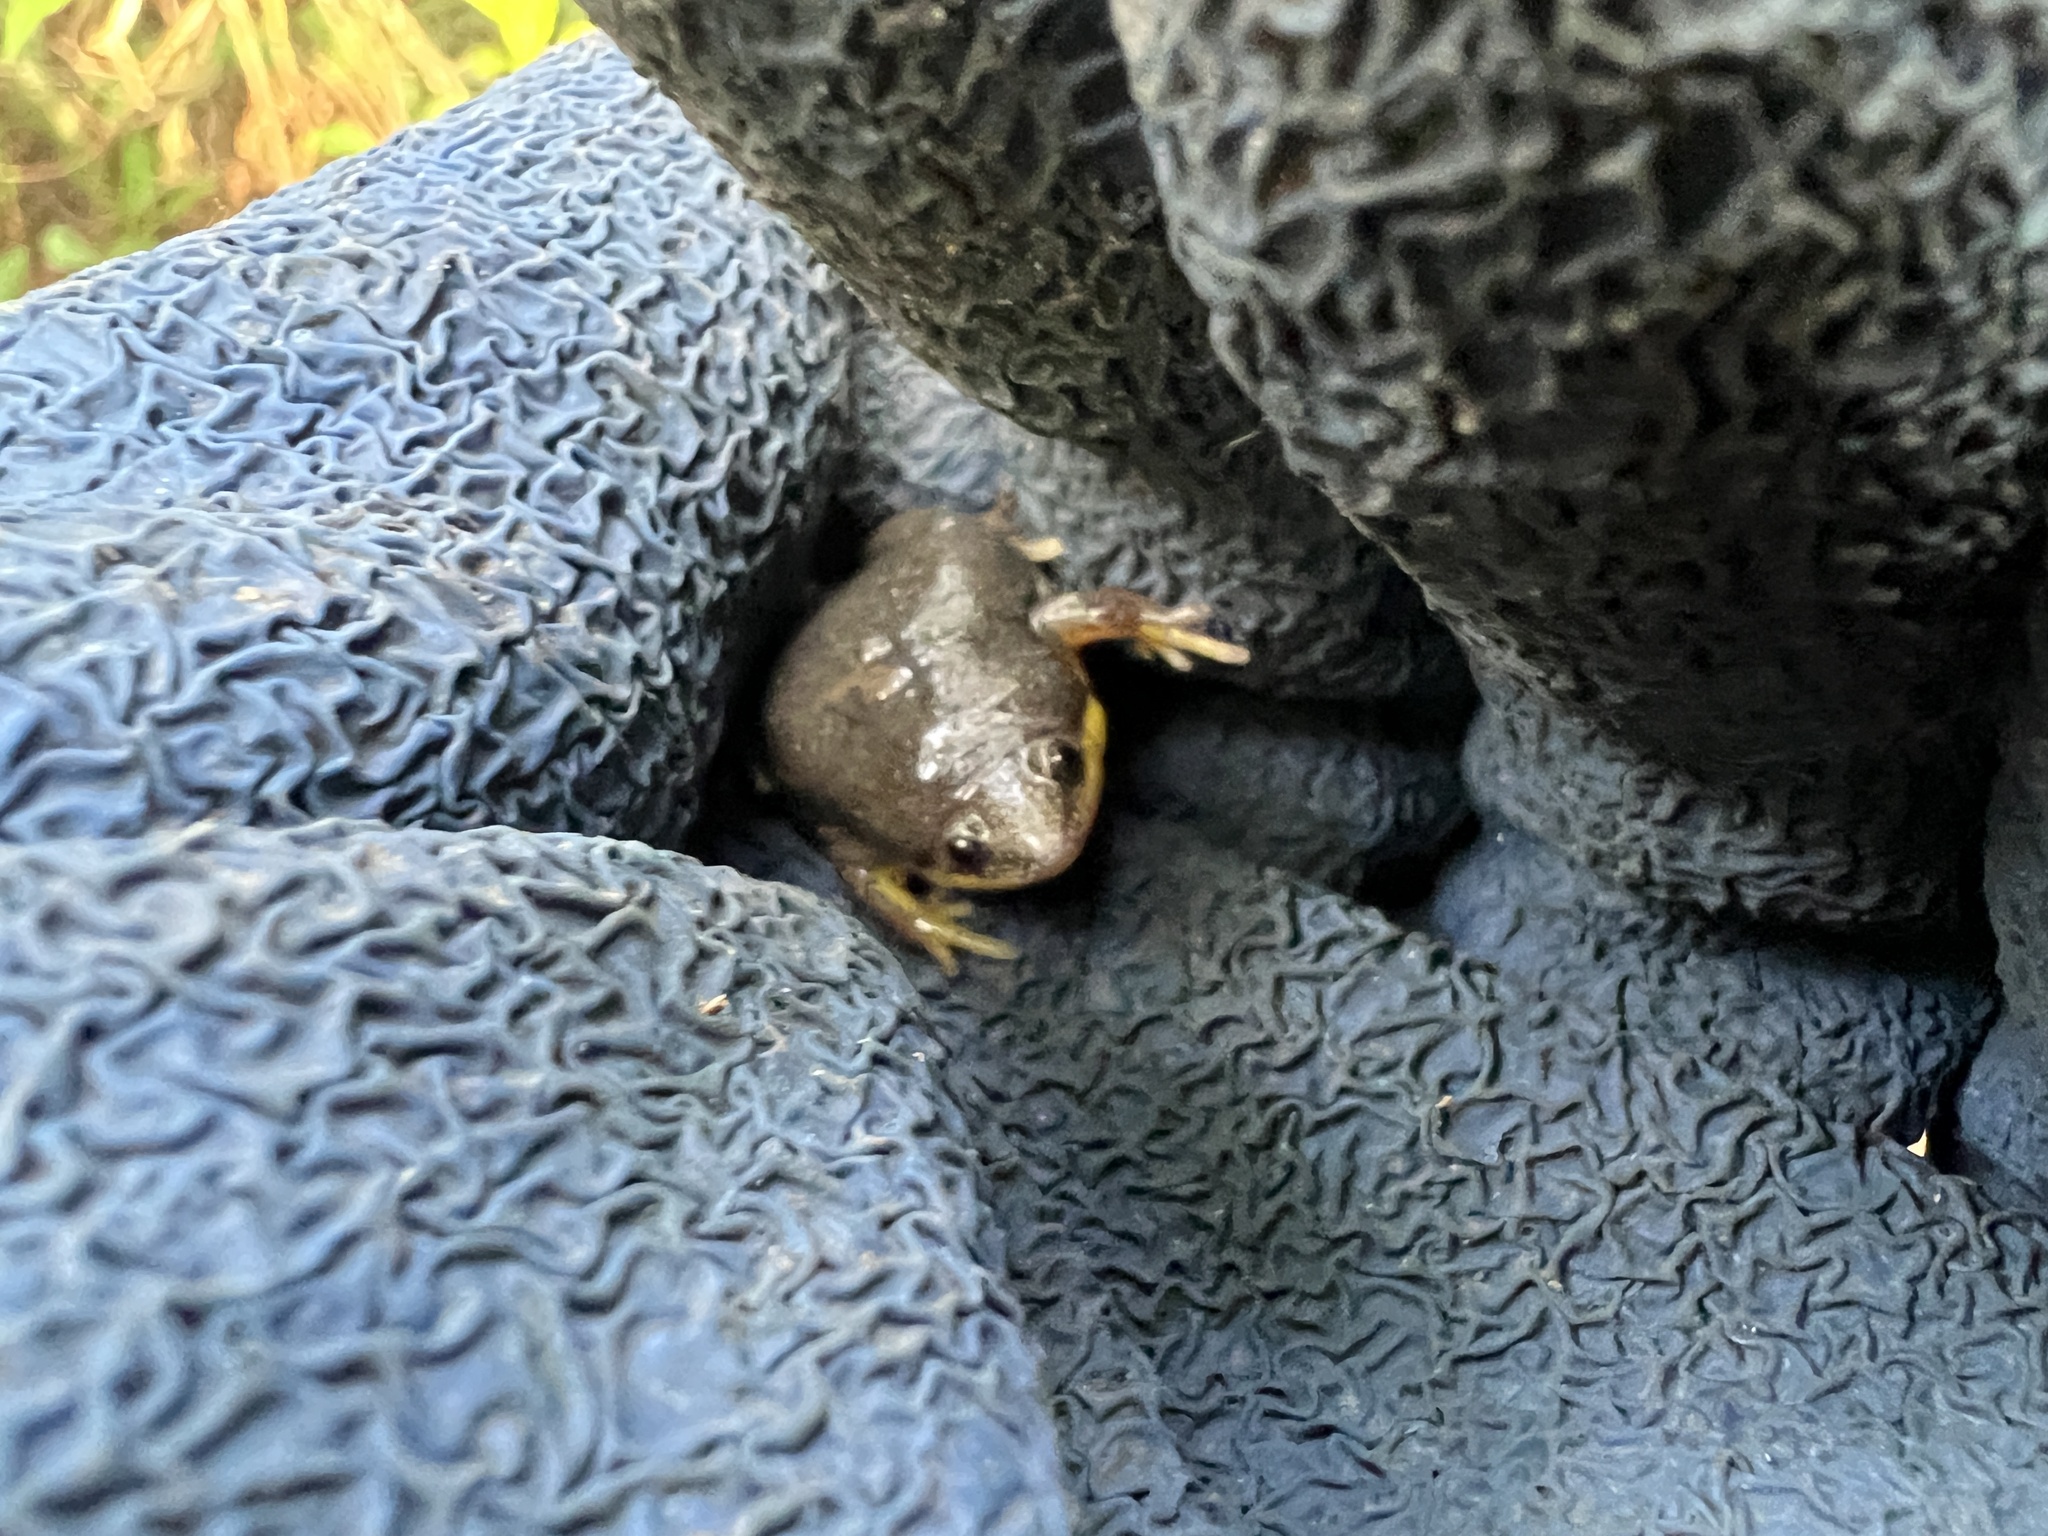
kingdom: Animalia
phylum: Chordata
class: Amphibia
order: Anura
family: Microhylidae
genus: Elachistocleis
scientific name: Elachistocleis bicolor
